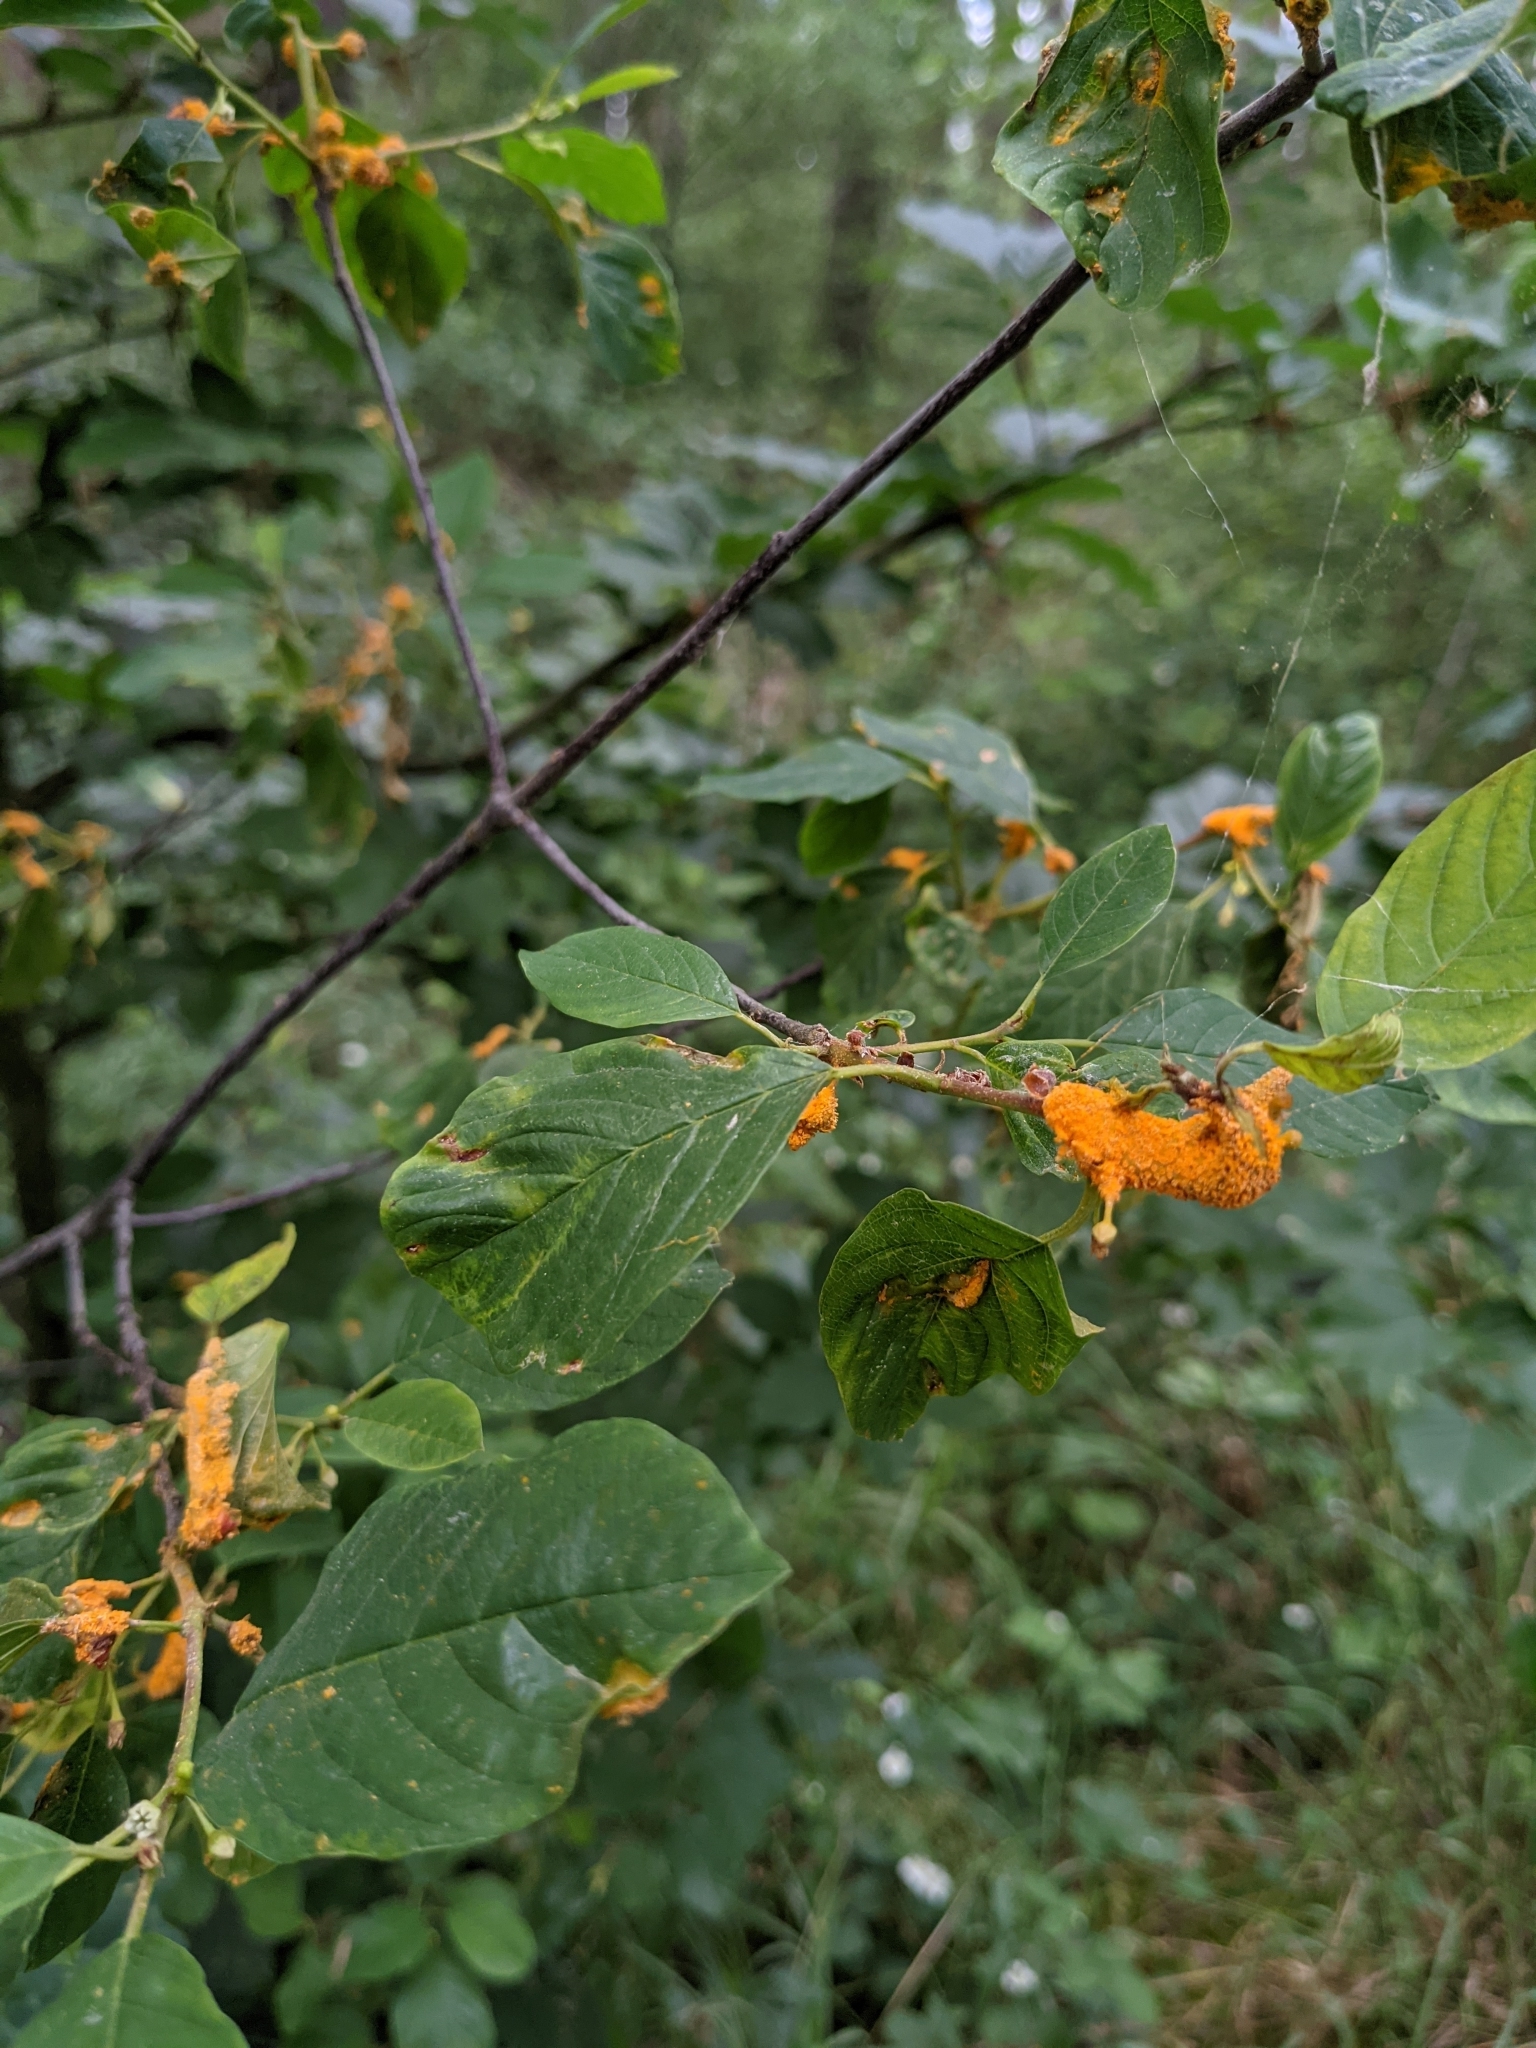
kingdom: Fungi
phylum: Basidiomycota
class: Pucciniomycetes
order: Pucciniales
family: Pucciniaceae
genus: Puccinia
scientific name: Puccinia coronata
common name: Crown rust
